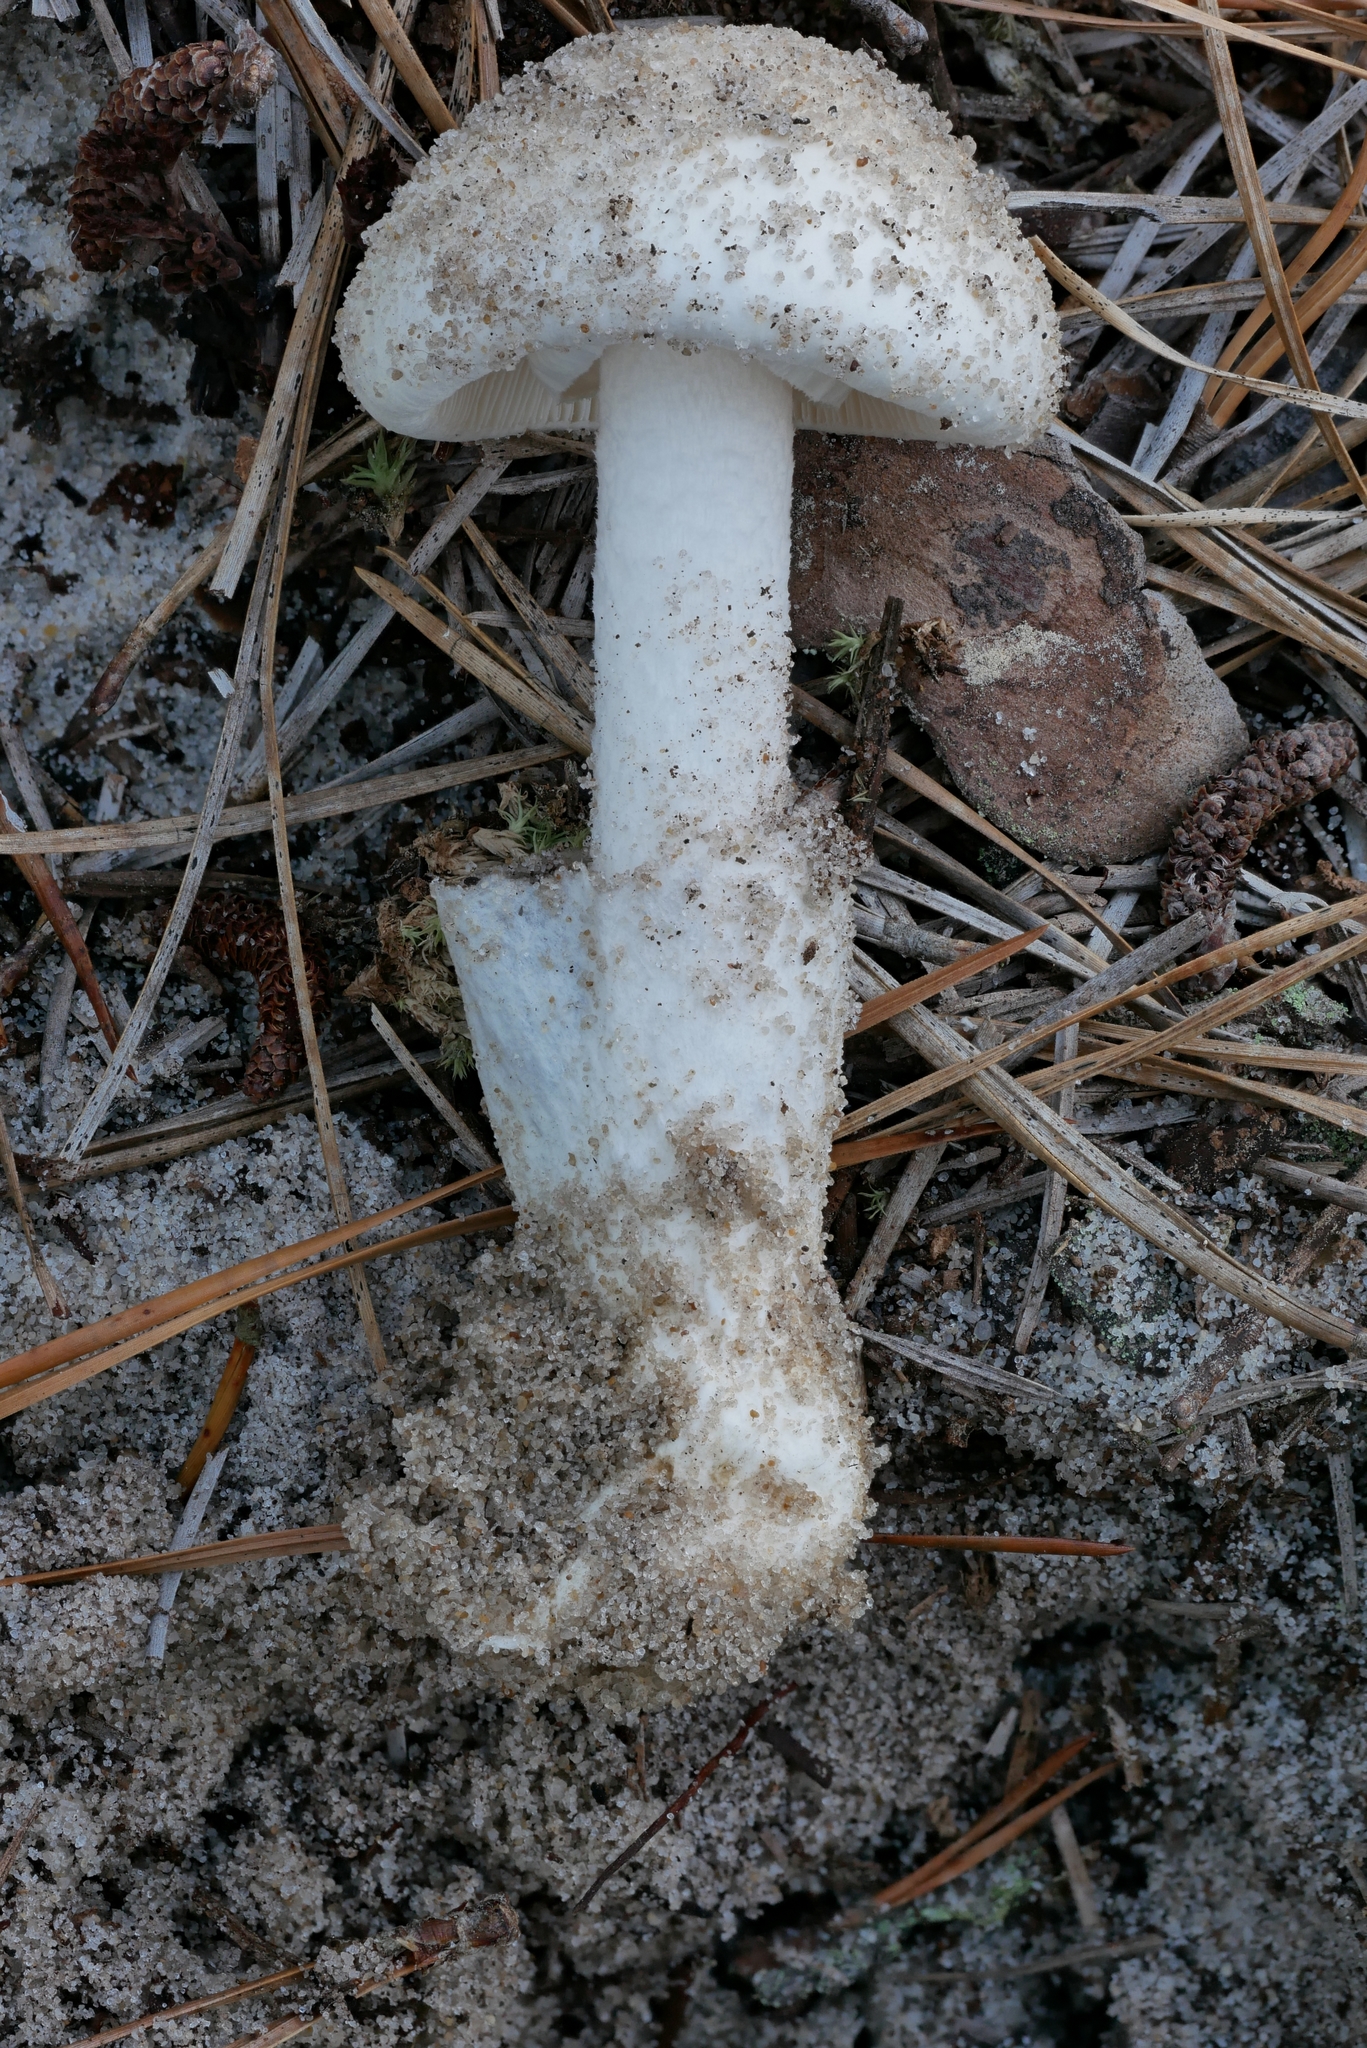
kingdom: Fungi
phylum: Basidiomycota
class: Agaricomycetes
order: Agaricales
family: Amanitaceae
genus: Amanita
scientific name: Amanita
